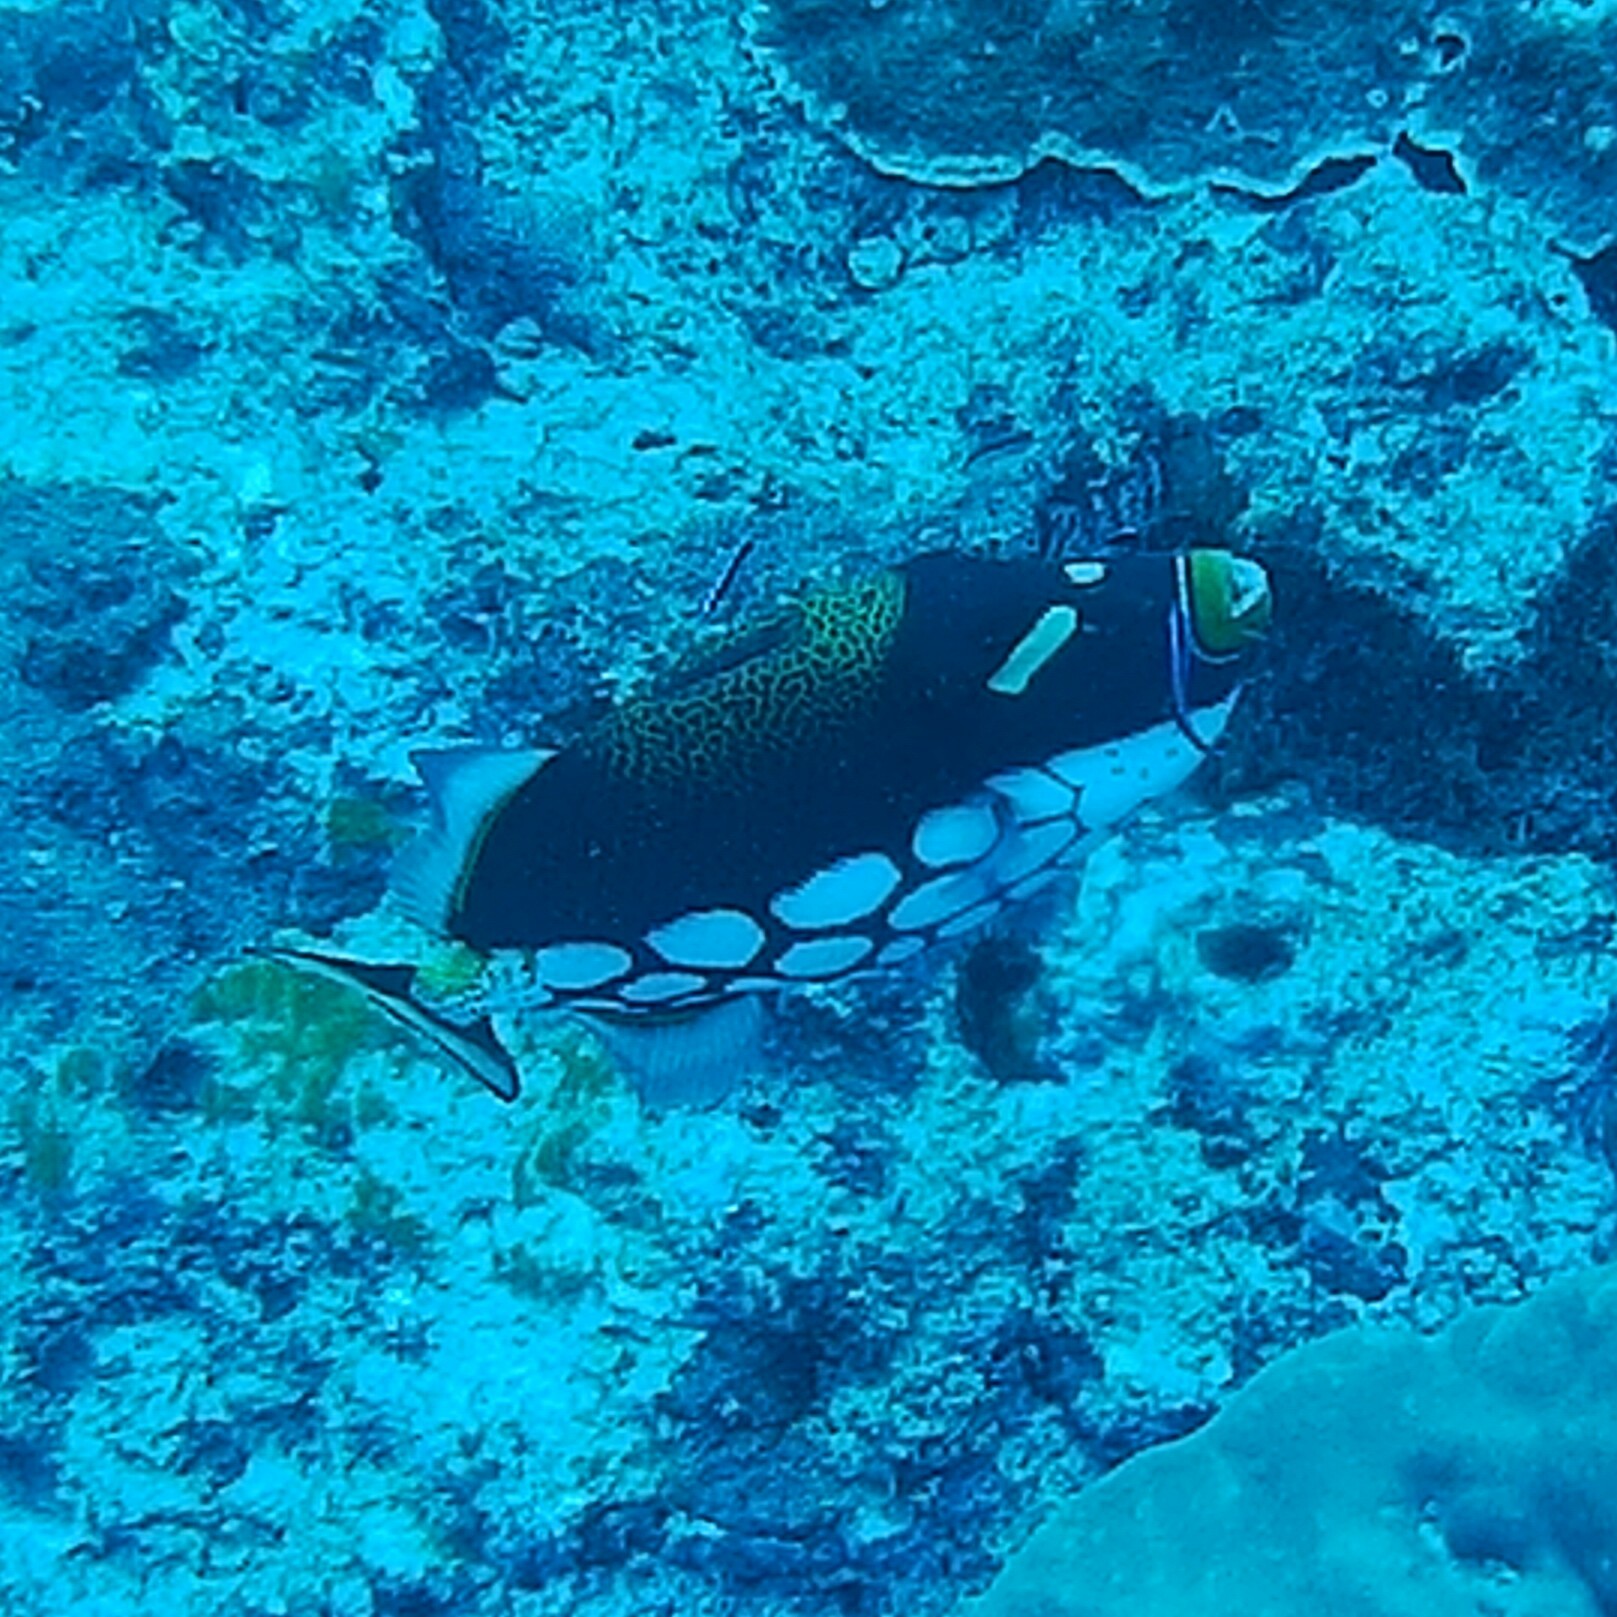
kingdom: Animalia
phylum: Chordata
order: Tetraodontiformes
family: Balistidae
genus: Balistoides
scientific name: Balistoides conspicillum
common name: Clown triggerfish
